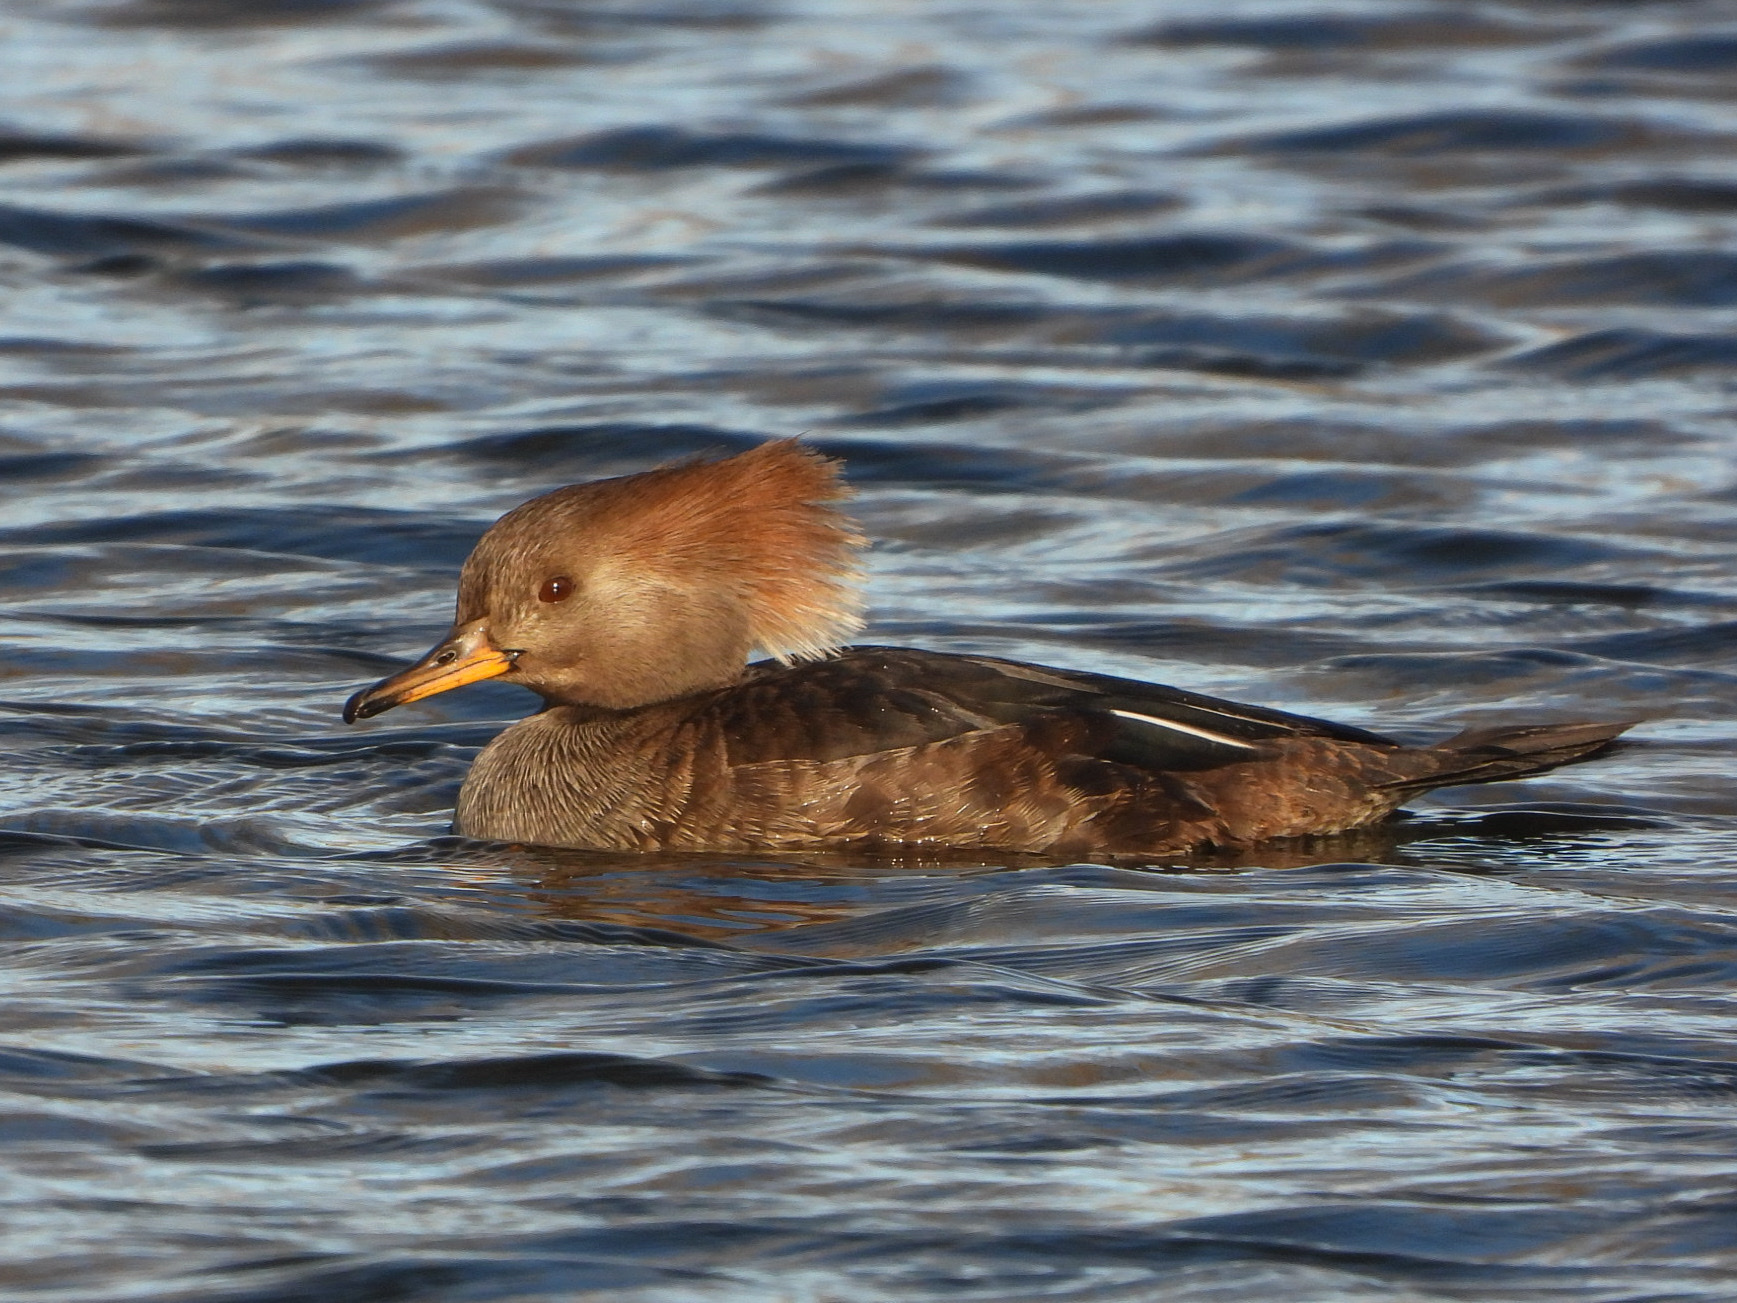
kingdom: Animalia
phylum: Chordata
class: Aves
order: Anseriformes
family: Anatidae
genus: Lophodytes
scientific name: Lophodytes cucullatus
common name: Hooded merganser
